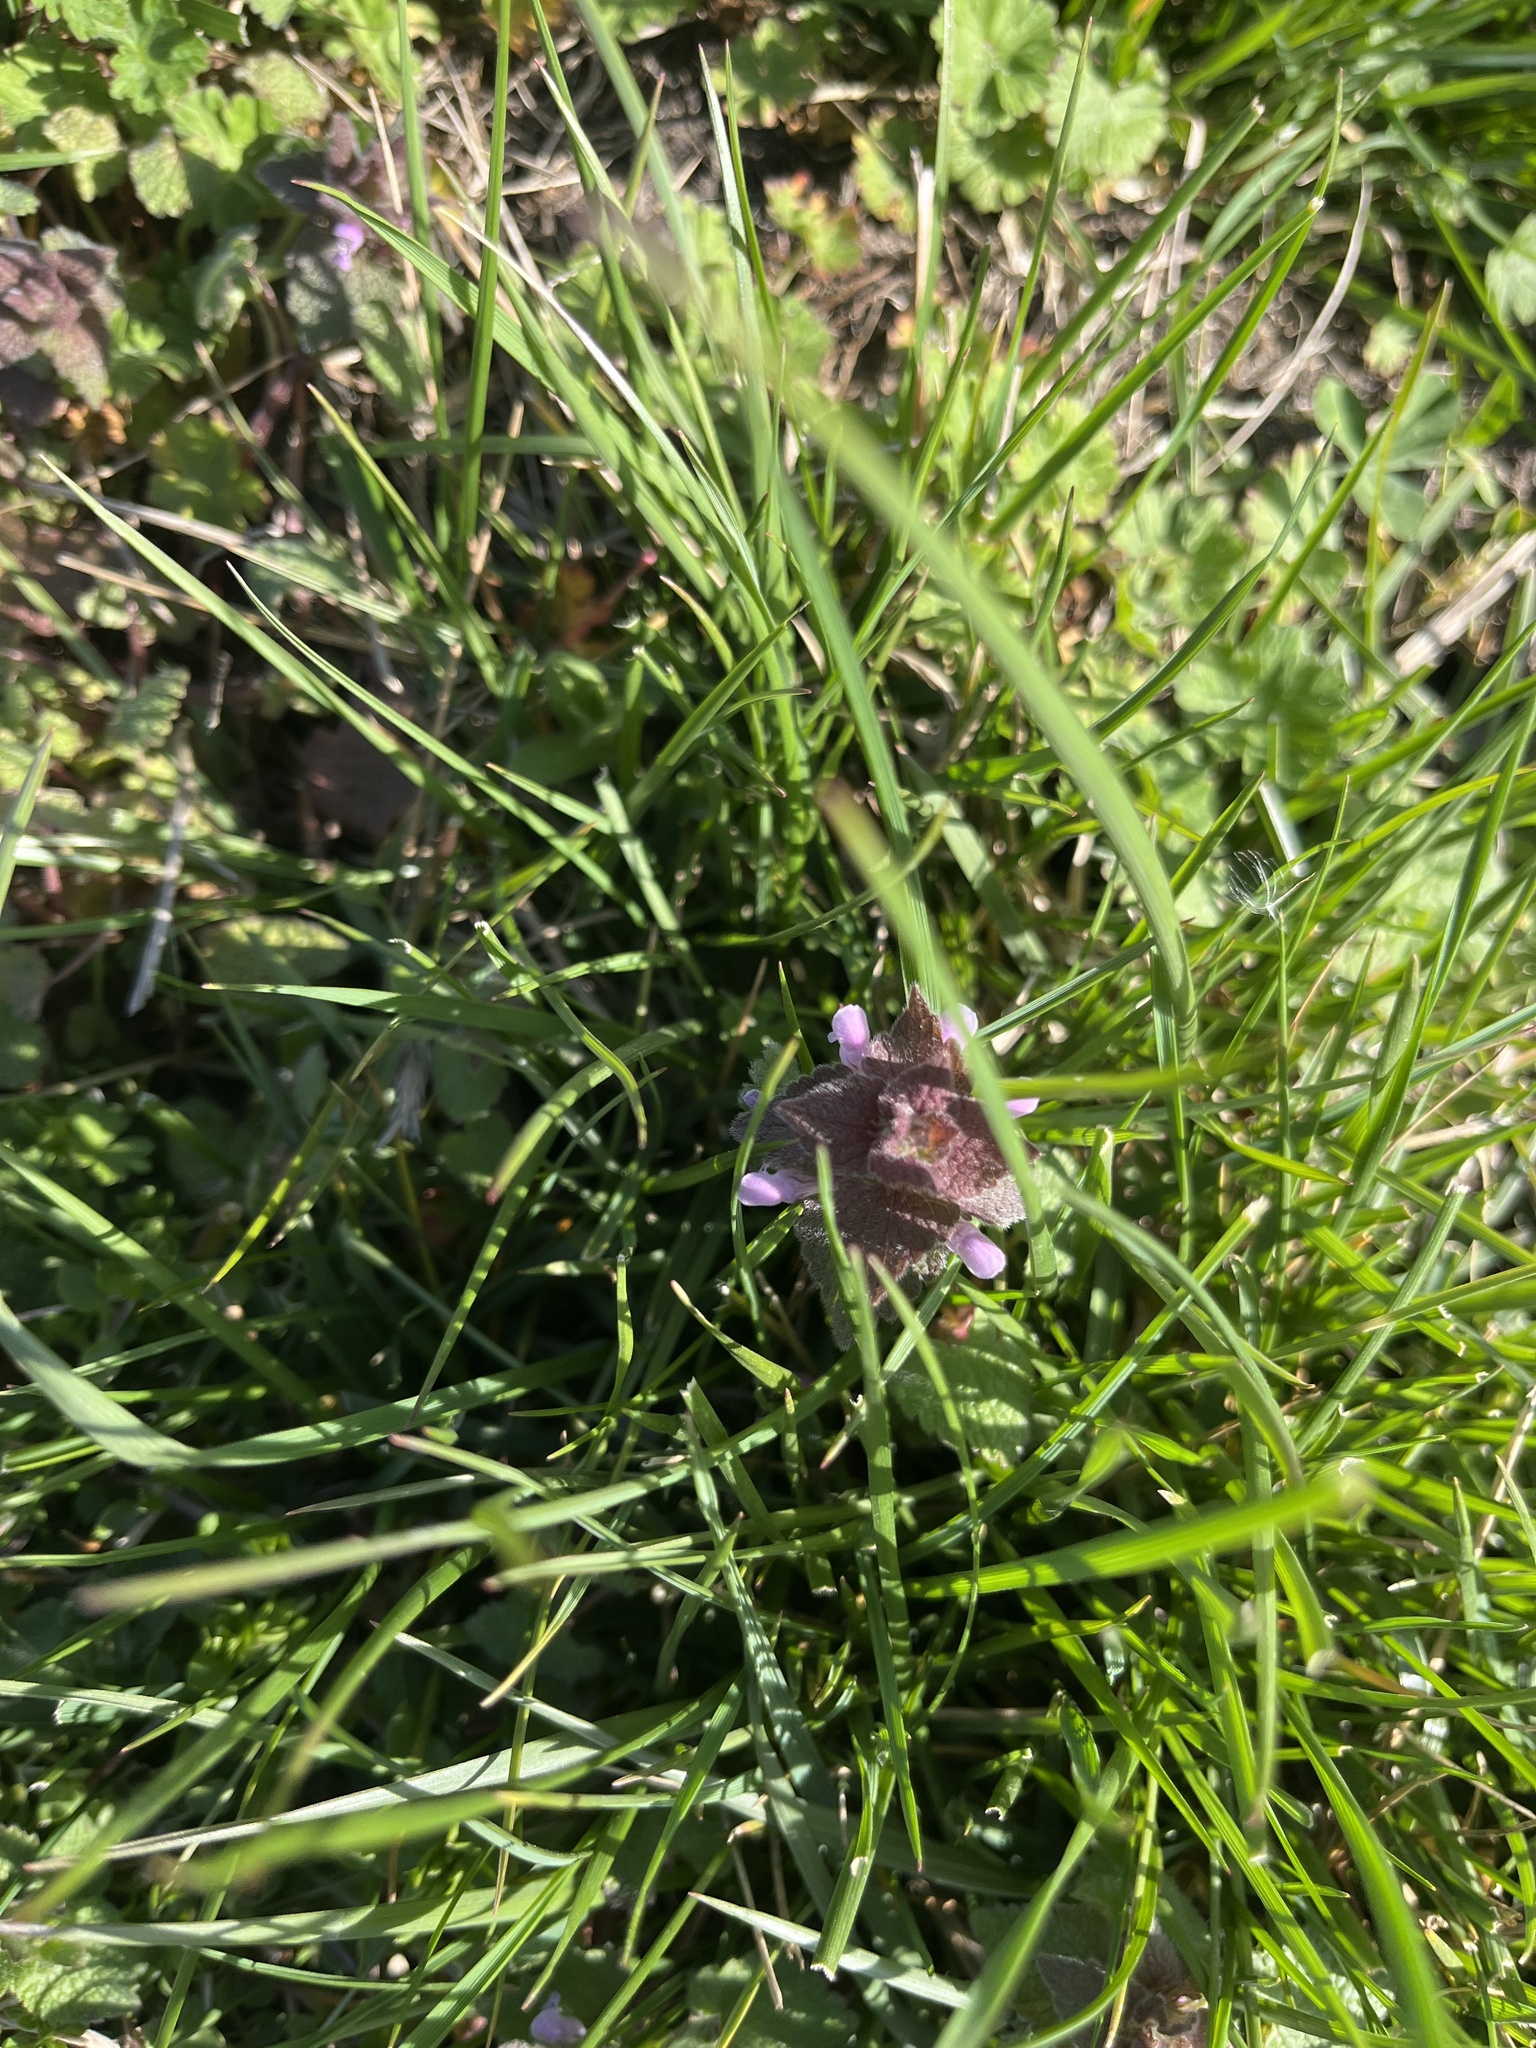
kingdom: Plantae
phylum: Tracheophyta
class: Magnoliopsida
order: Lamiales
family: Lamiaceae
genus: Lamium
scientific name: Lamium purpureum
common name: Red dead-nettle
